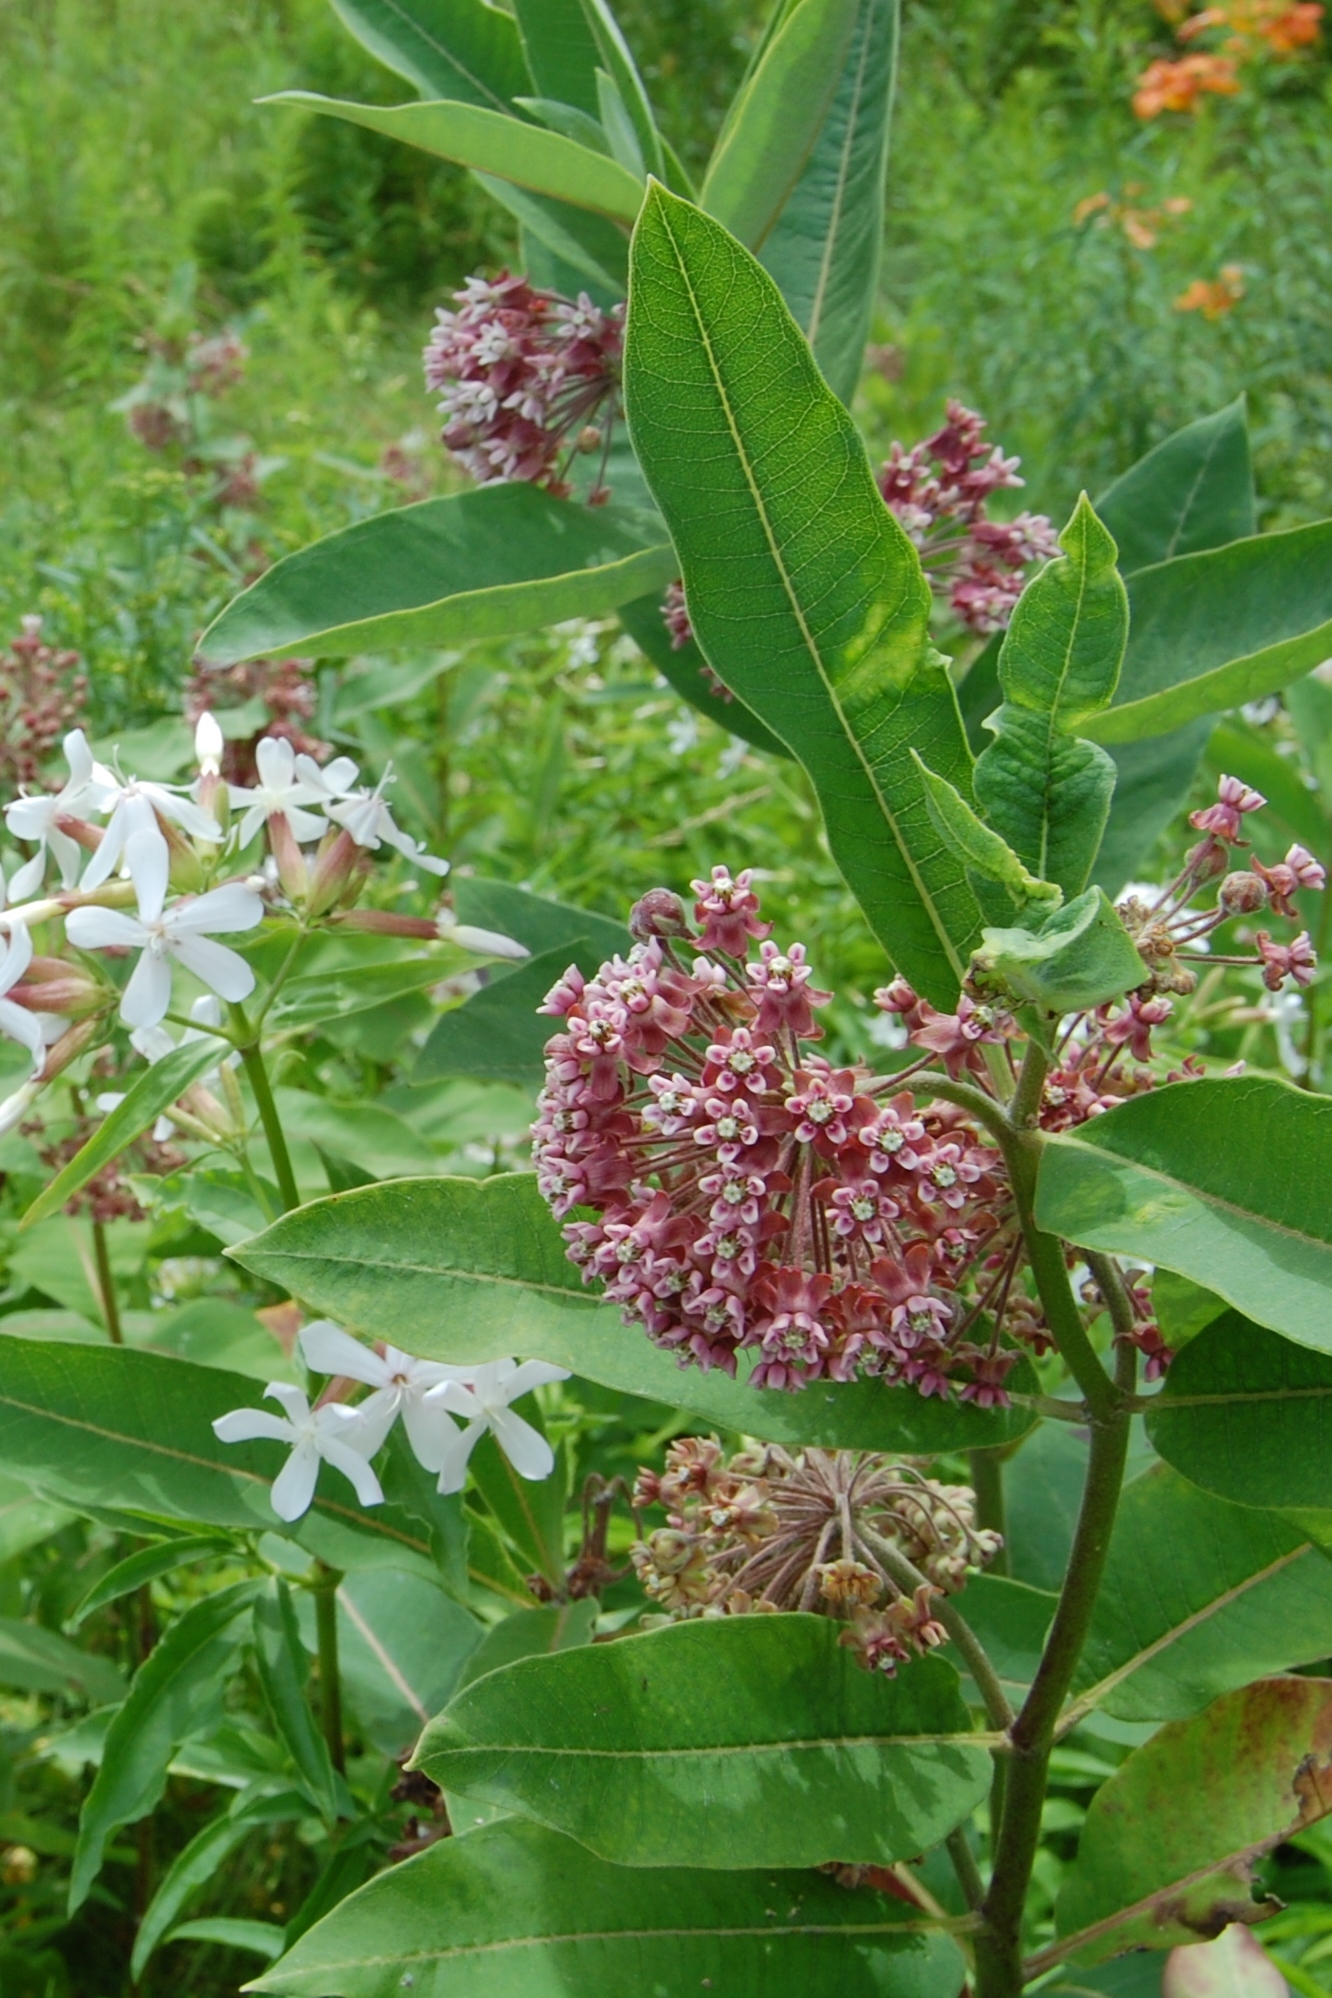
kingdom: Plantae
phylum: Tracheophyta
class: Magnoliopsida
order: Caryophyllales
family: Caryophyllaceae
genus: Saponaria
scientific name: Saponaria officinalis
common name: Soapwort
